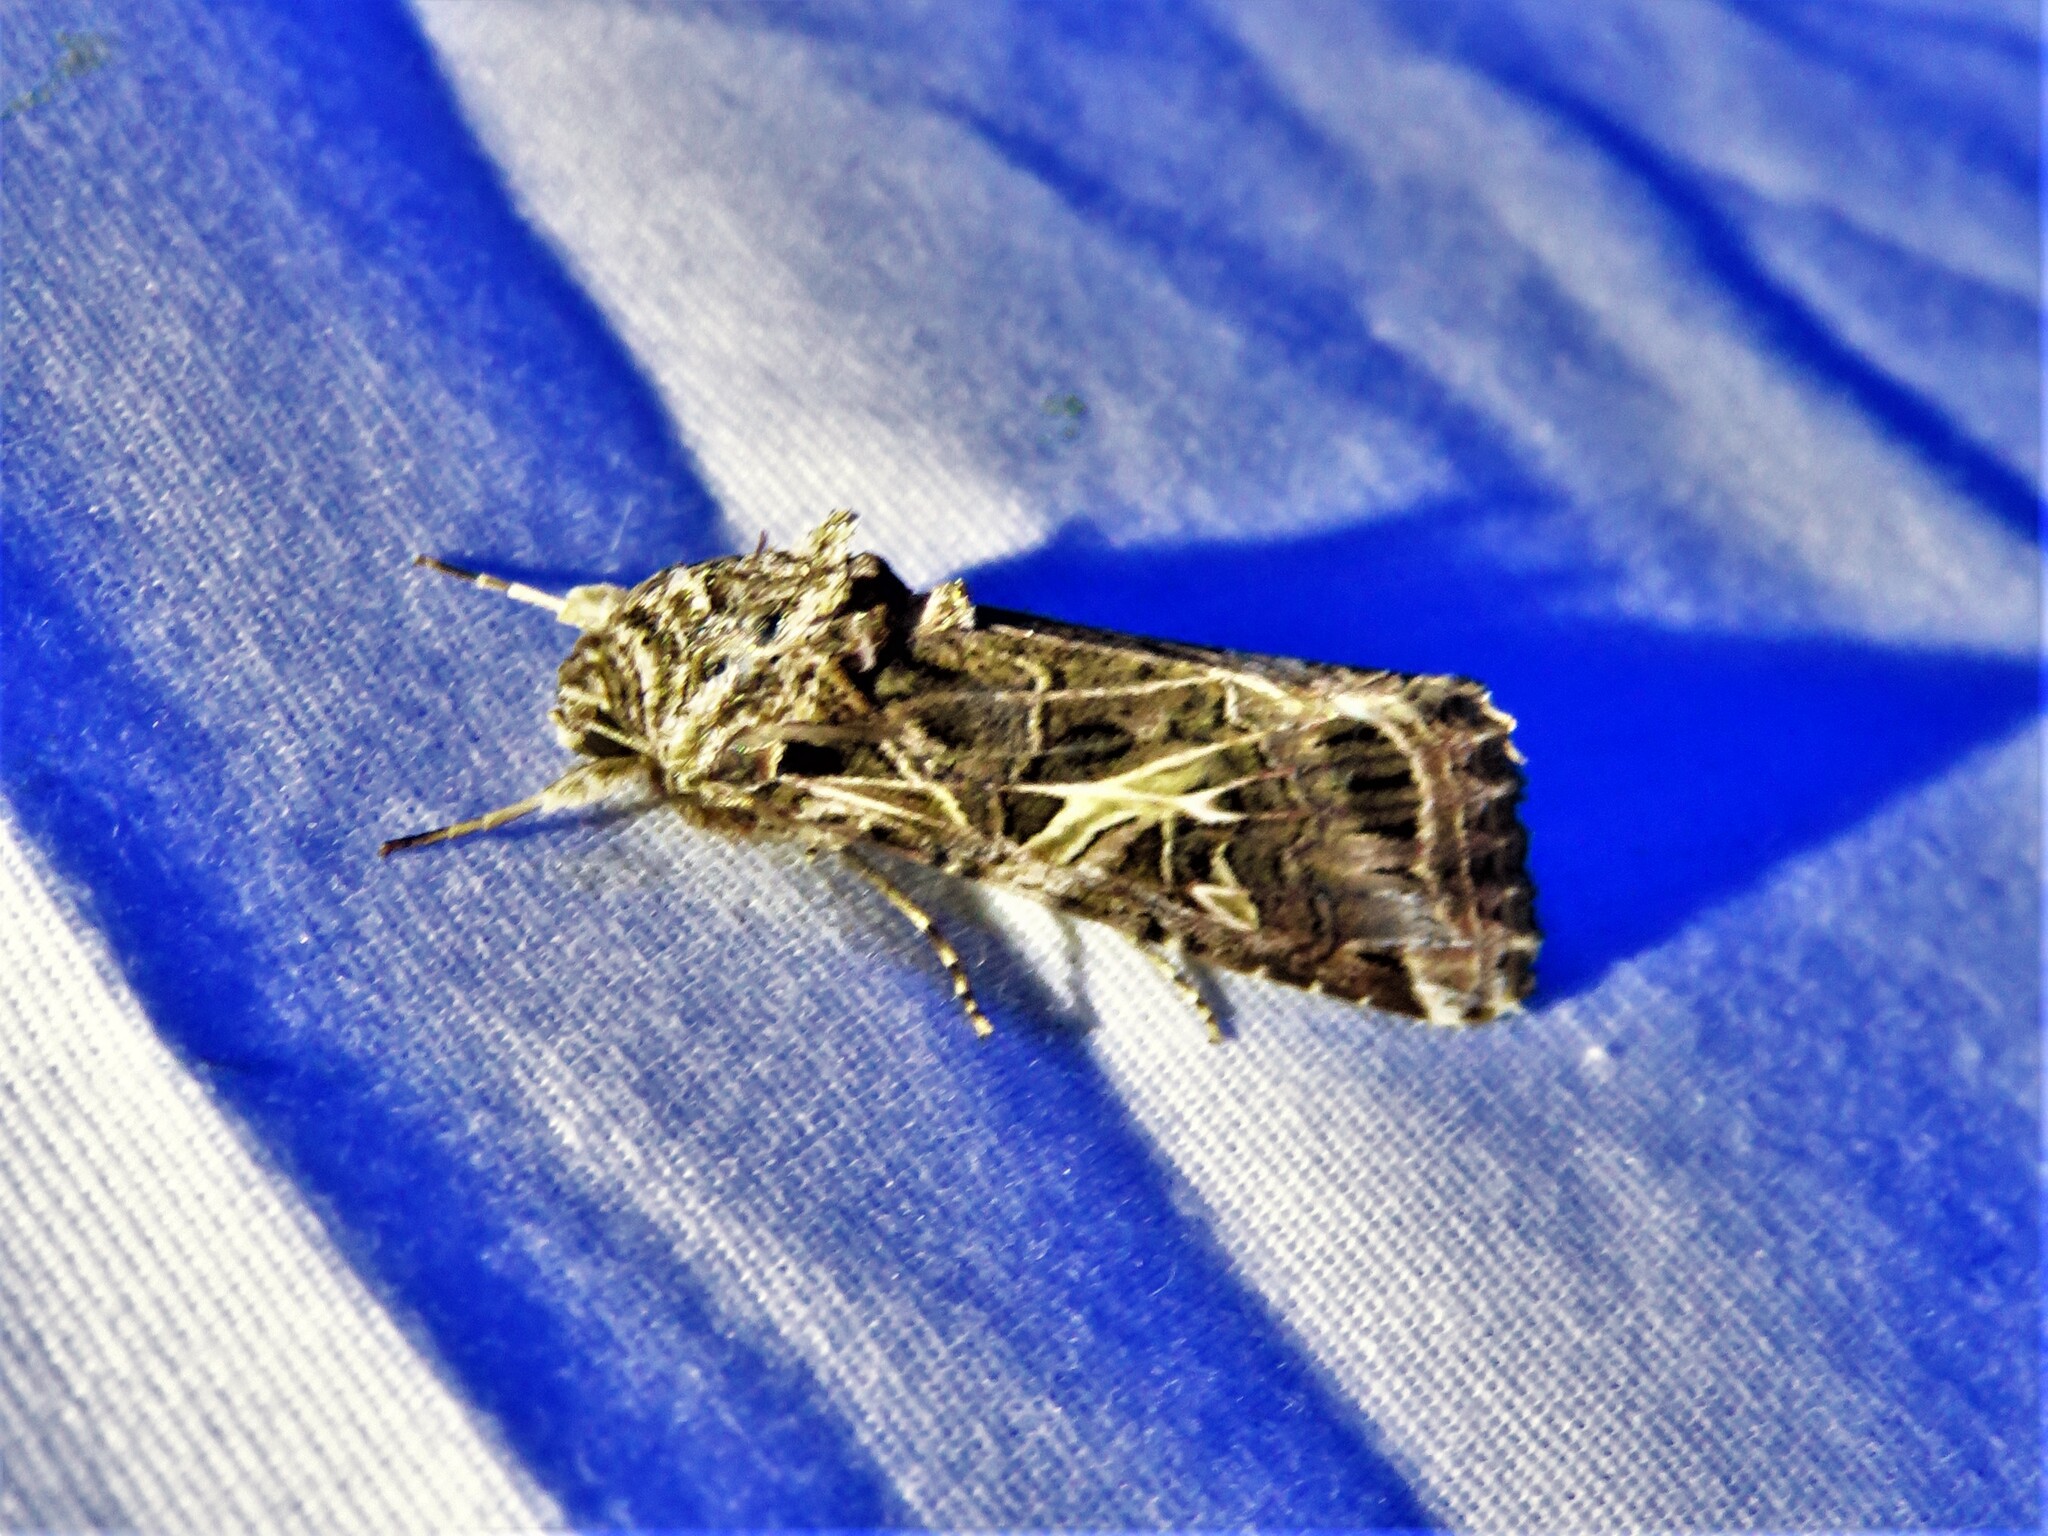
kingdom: Animalia
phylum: Arthropoda
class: Insecta
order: Lepidoptera
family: Noctuidae
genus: Spodoptera
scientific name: Spodoptera ornithogalli
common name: Yellow-striped armyworm
